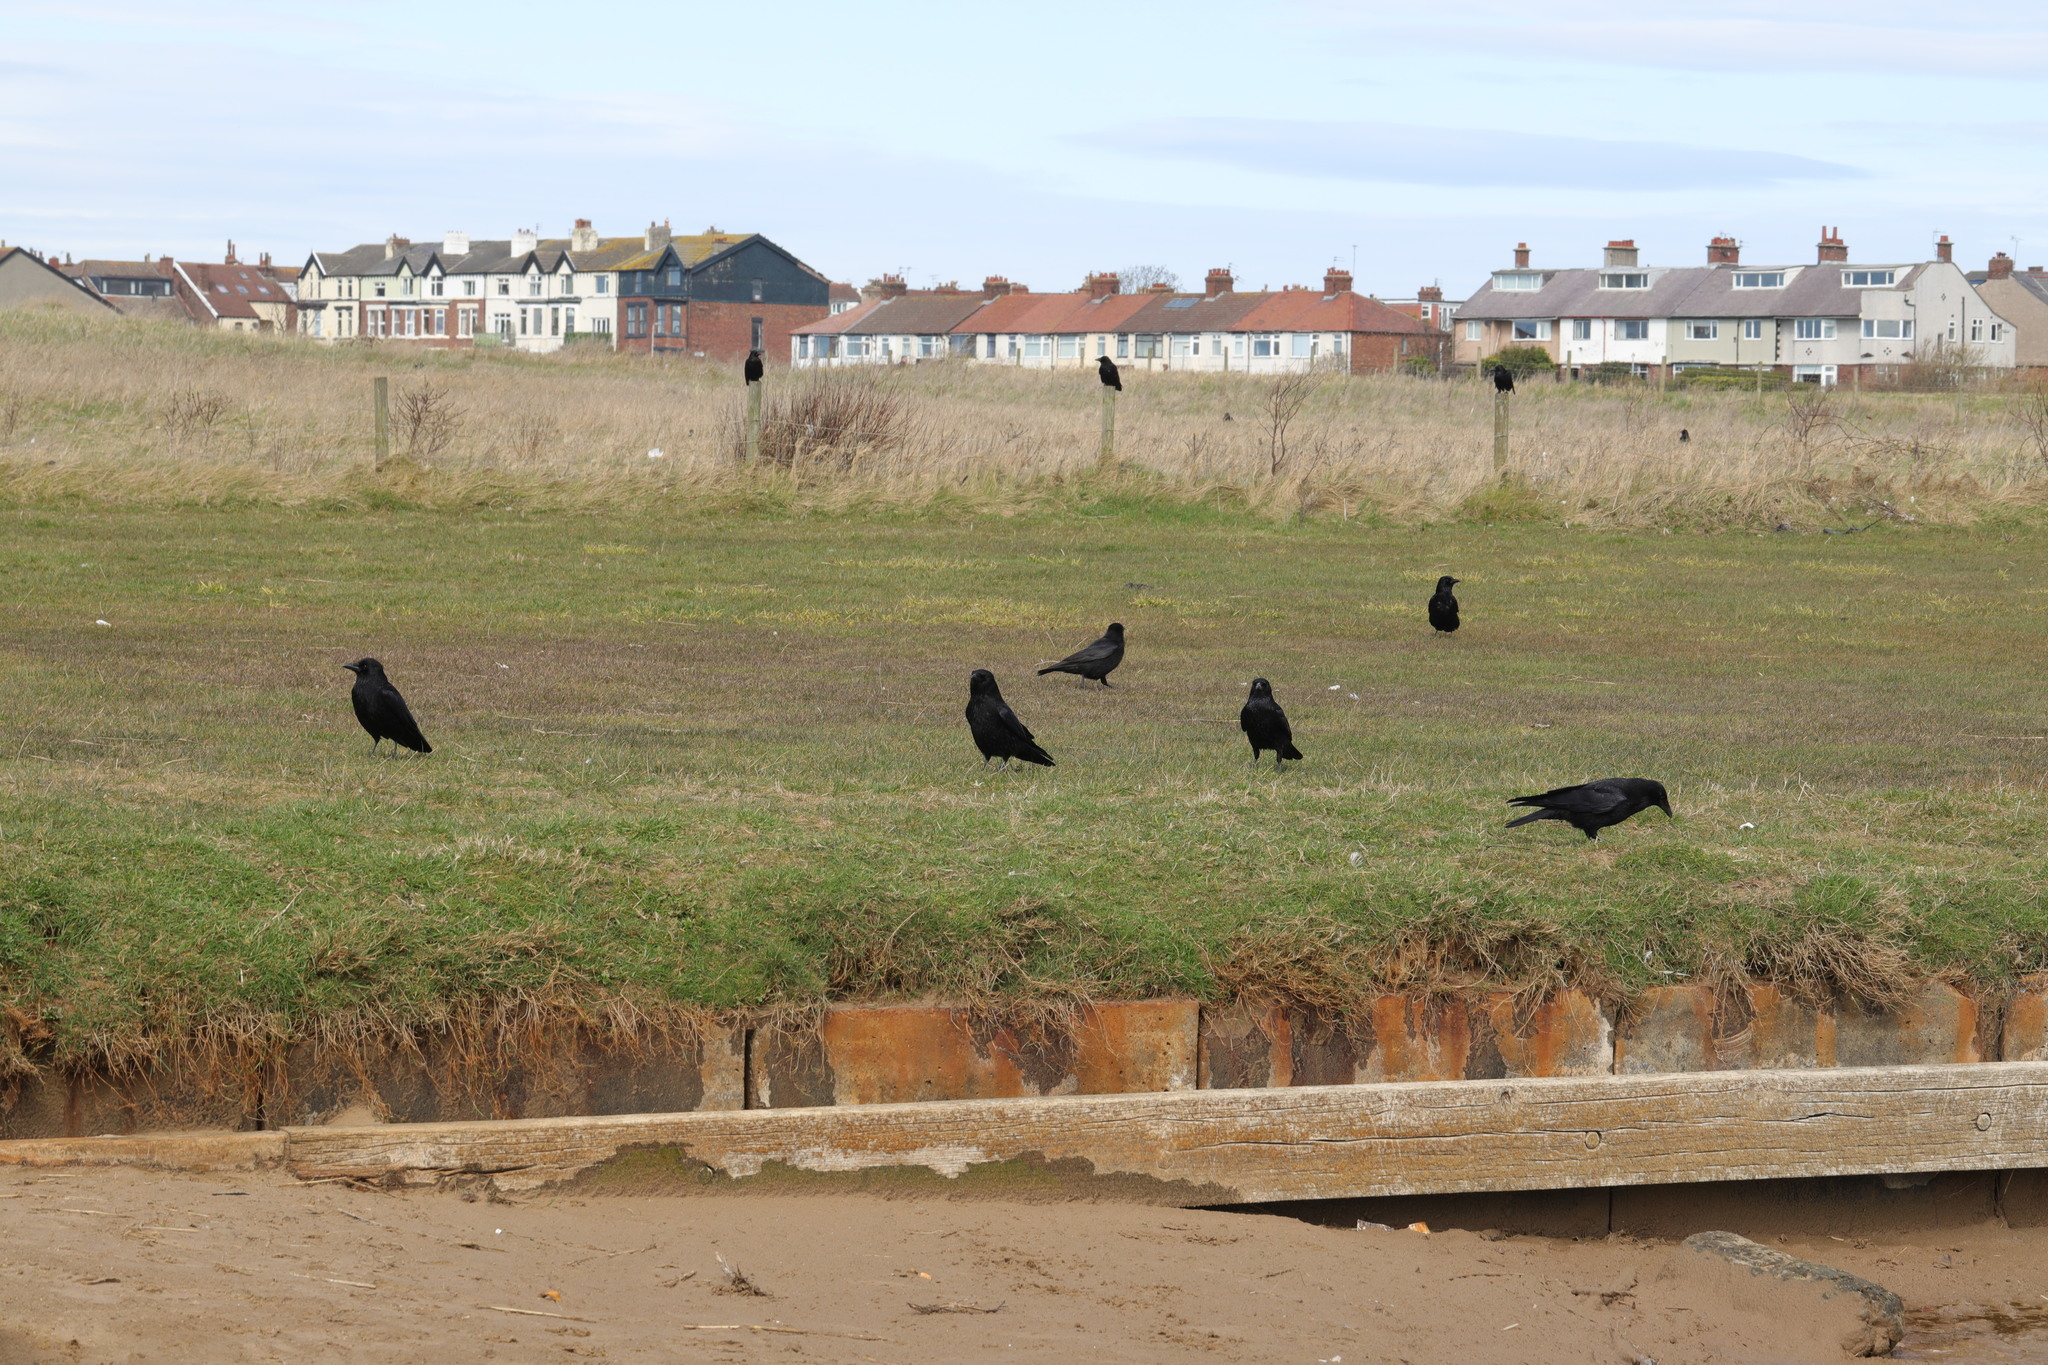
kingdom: Animalia
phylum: Chordata
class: Aves
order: Passeriformes
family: Corvidae
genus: Corvus
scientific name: Corvus corone
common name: Carrion crow
